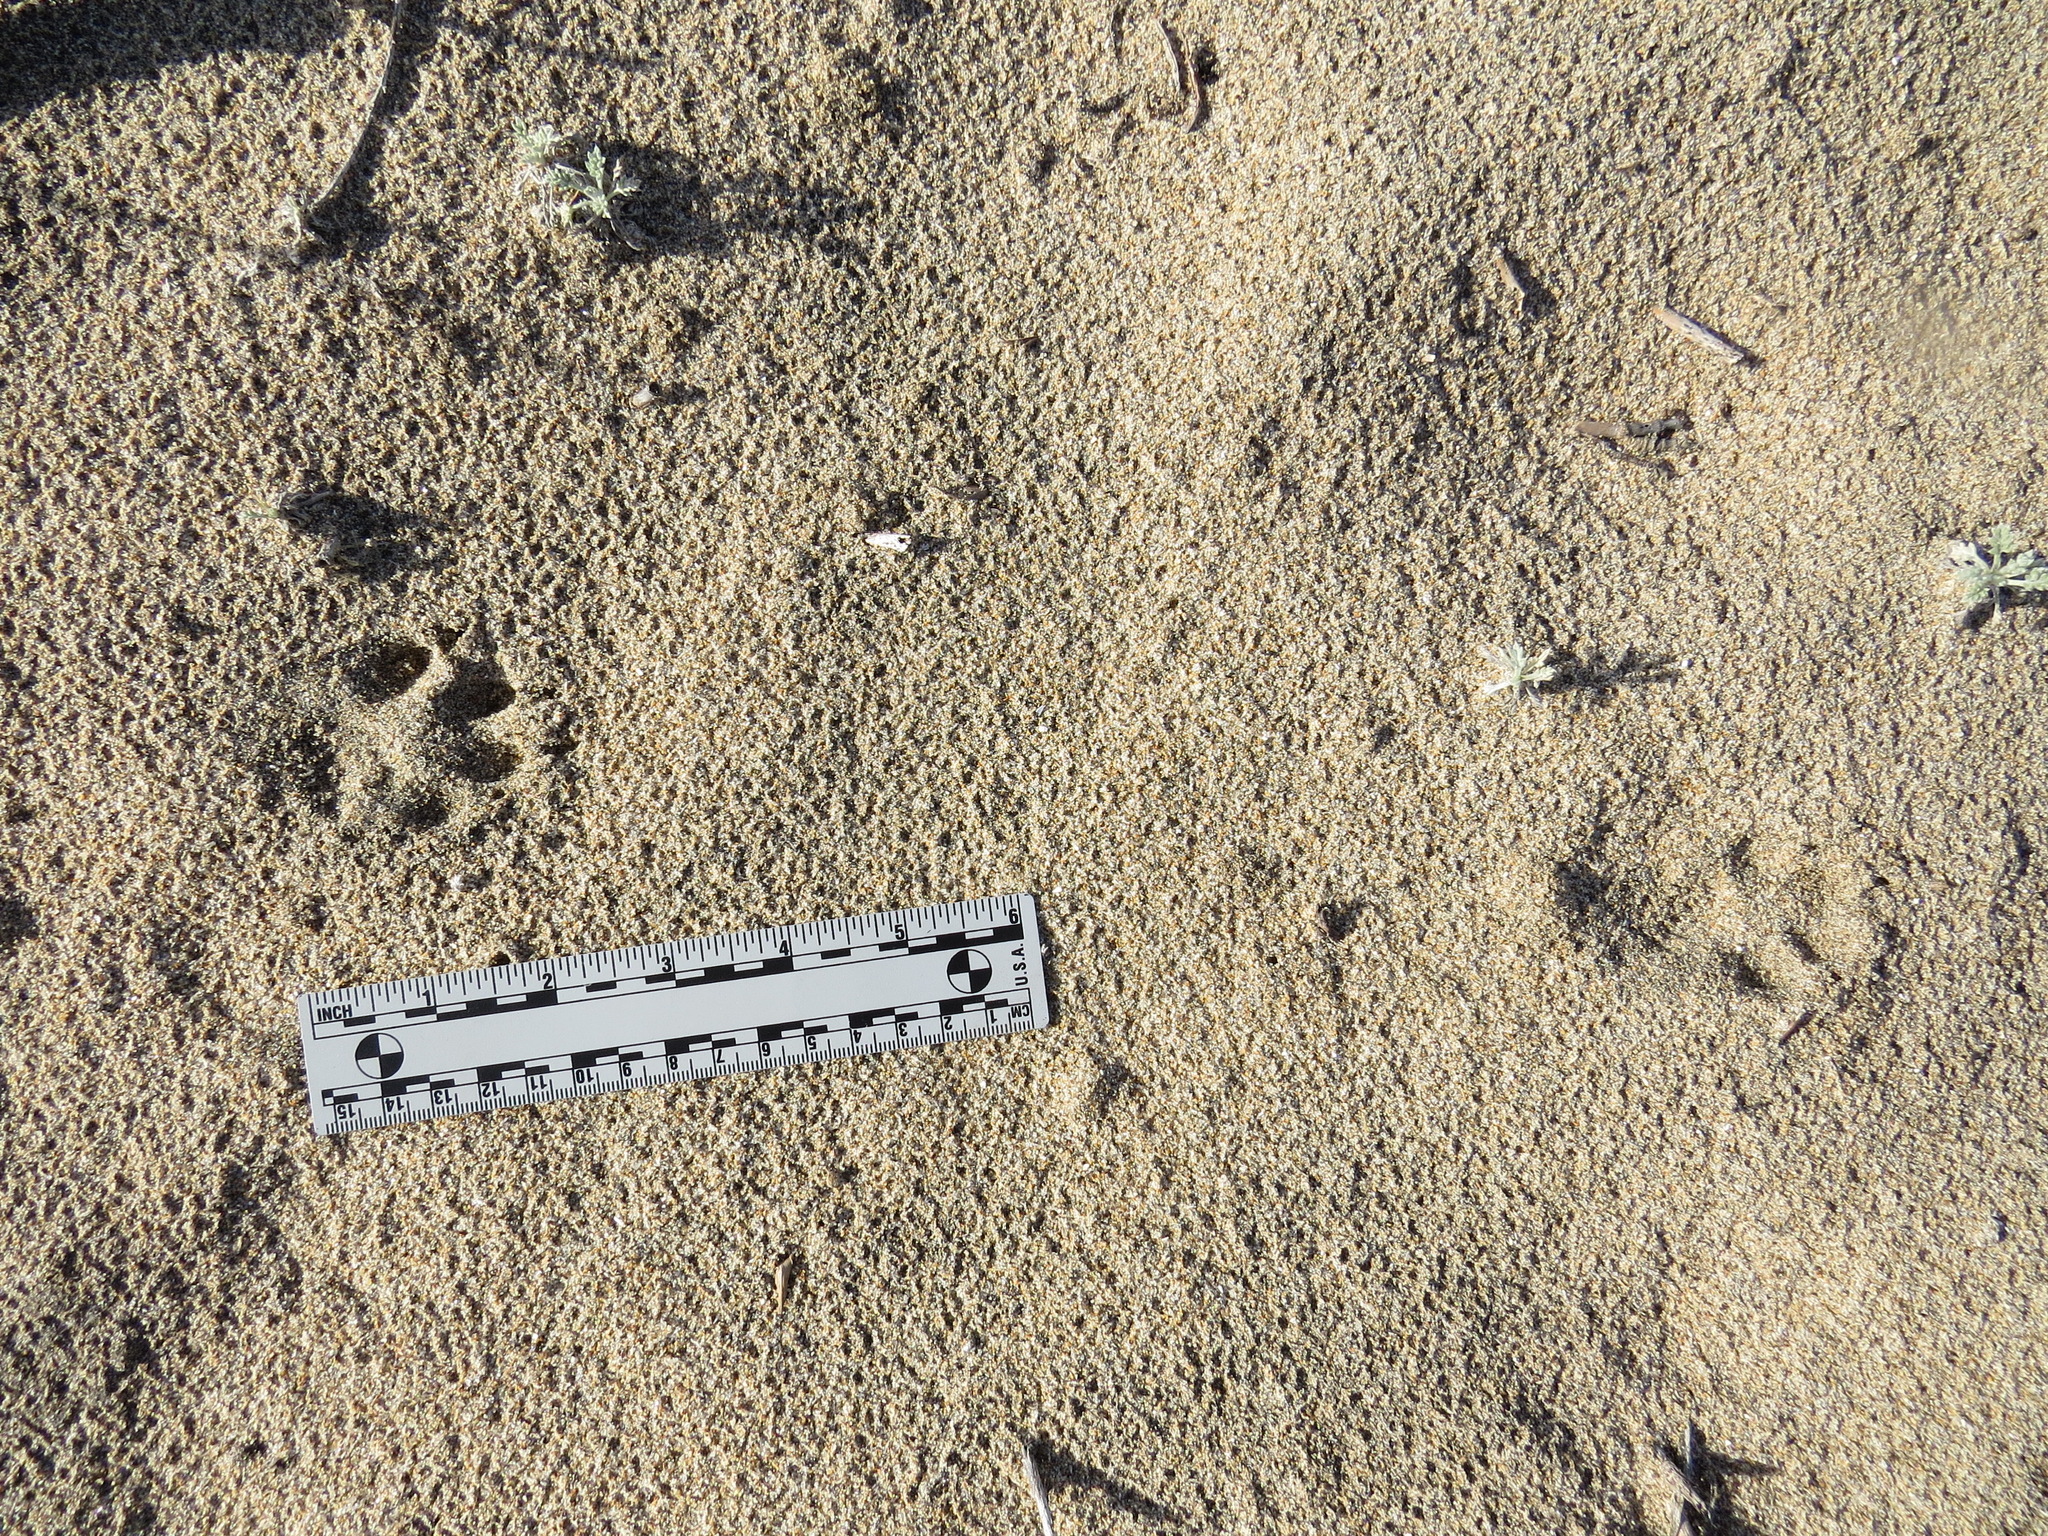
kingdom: Animalia
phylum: Chordata
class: Mammalia
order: Carnivora
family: Canidae
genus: Urocyon
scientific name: Urocyon cinereoargenteus
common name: Gray fox
